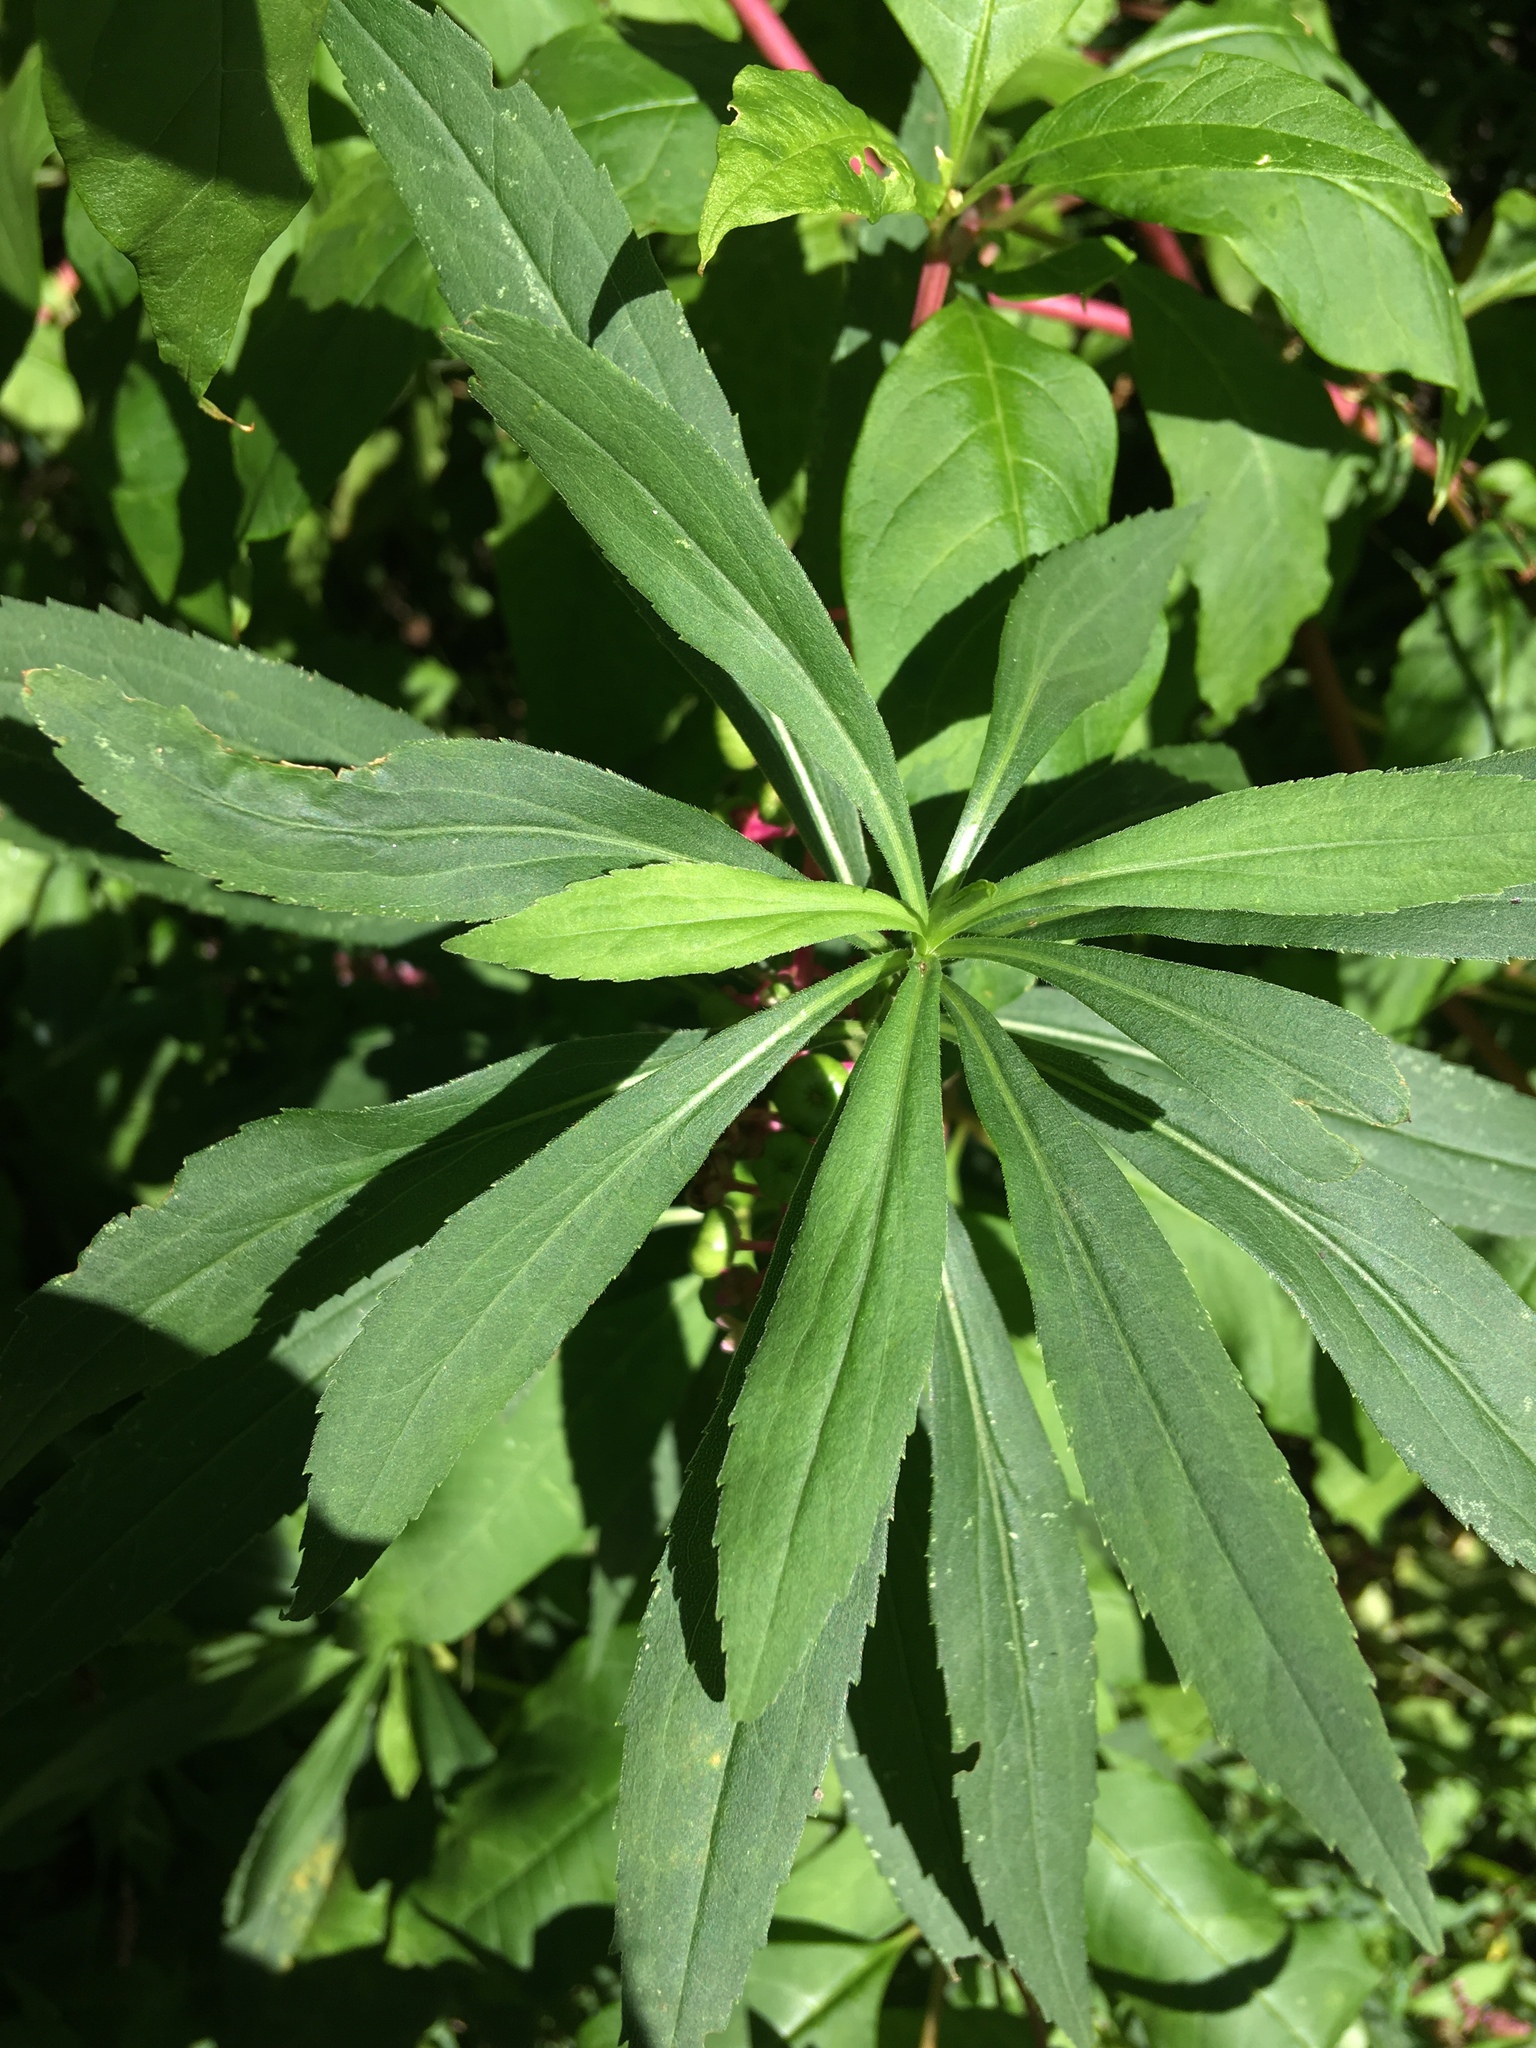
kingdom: Plantae
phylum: Tracheophyta
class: Magnoliopsida
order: Asterales
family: Asteraceae
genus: Solidago
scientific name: Solidago gigantea
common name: Giant goldenrod
